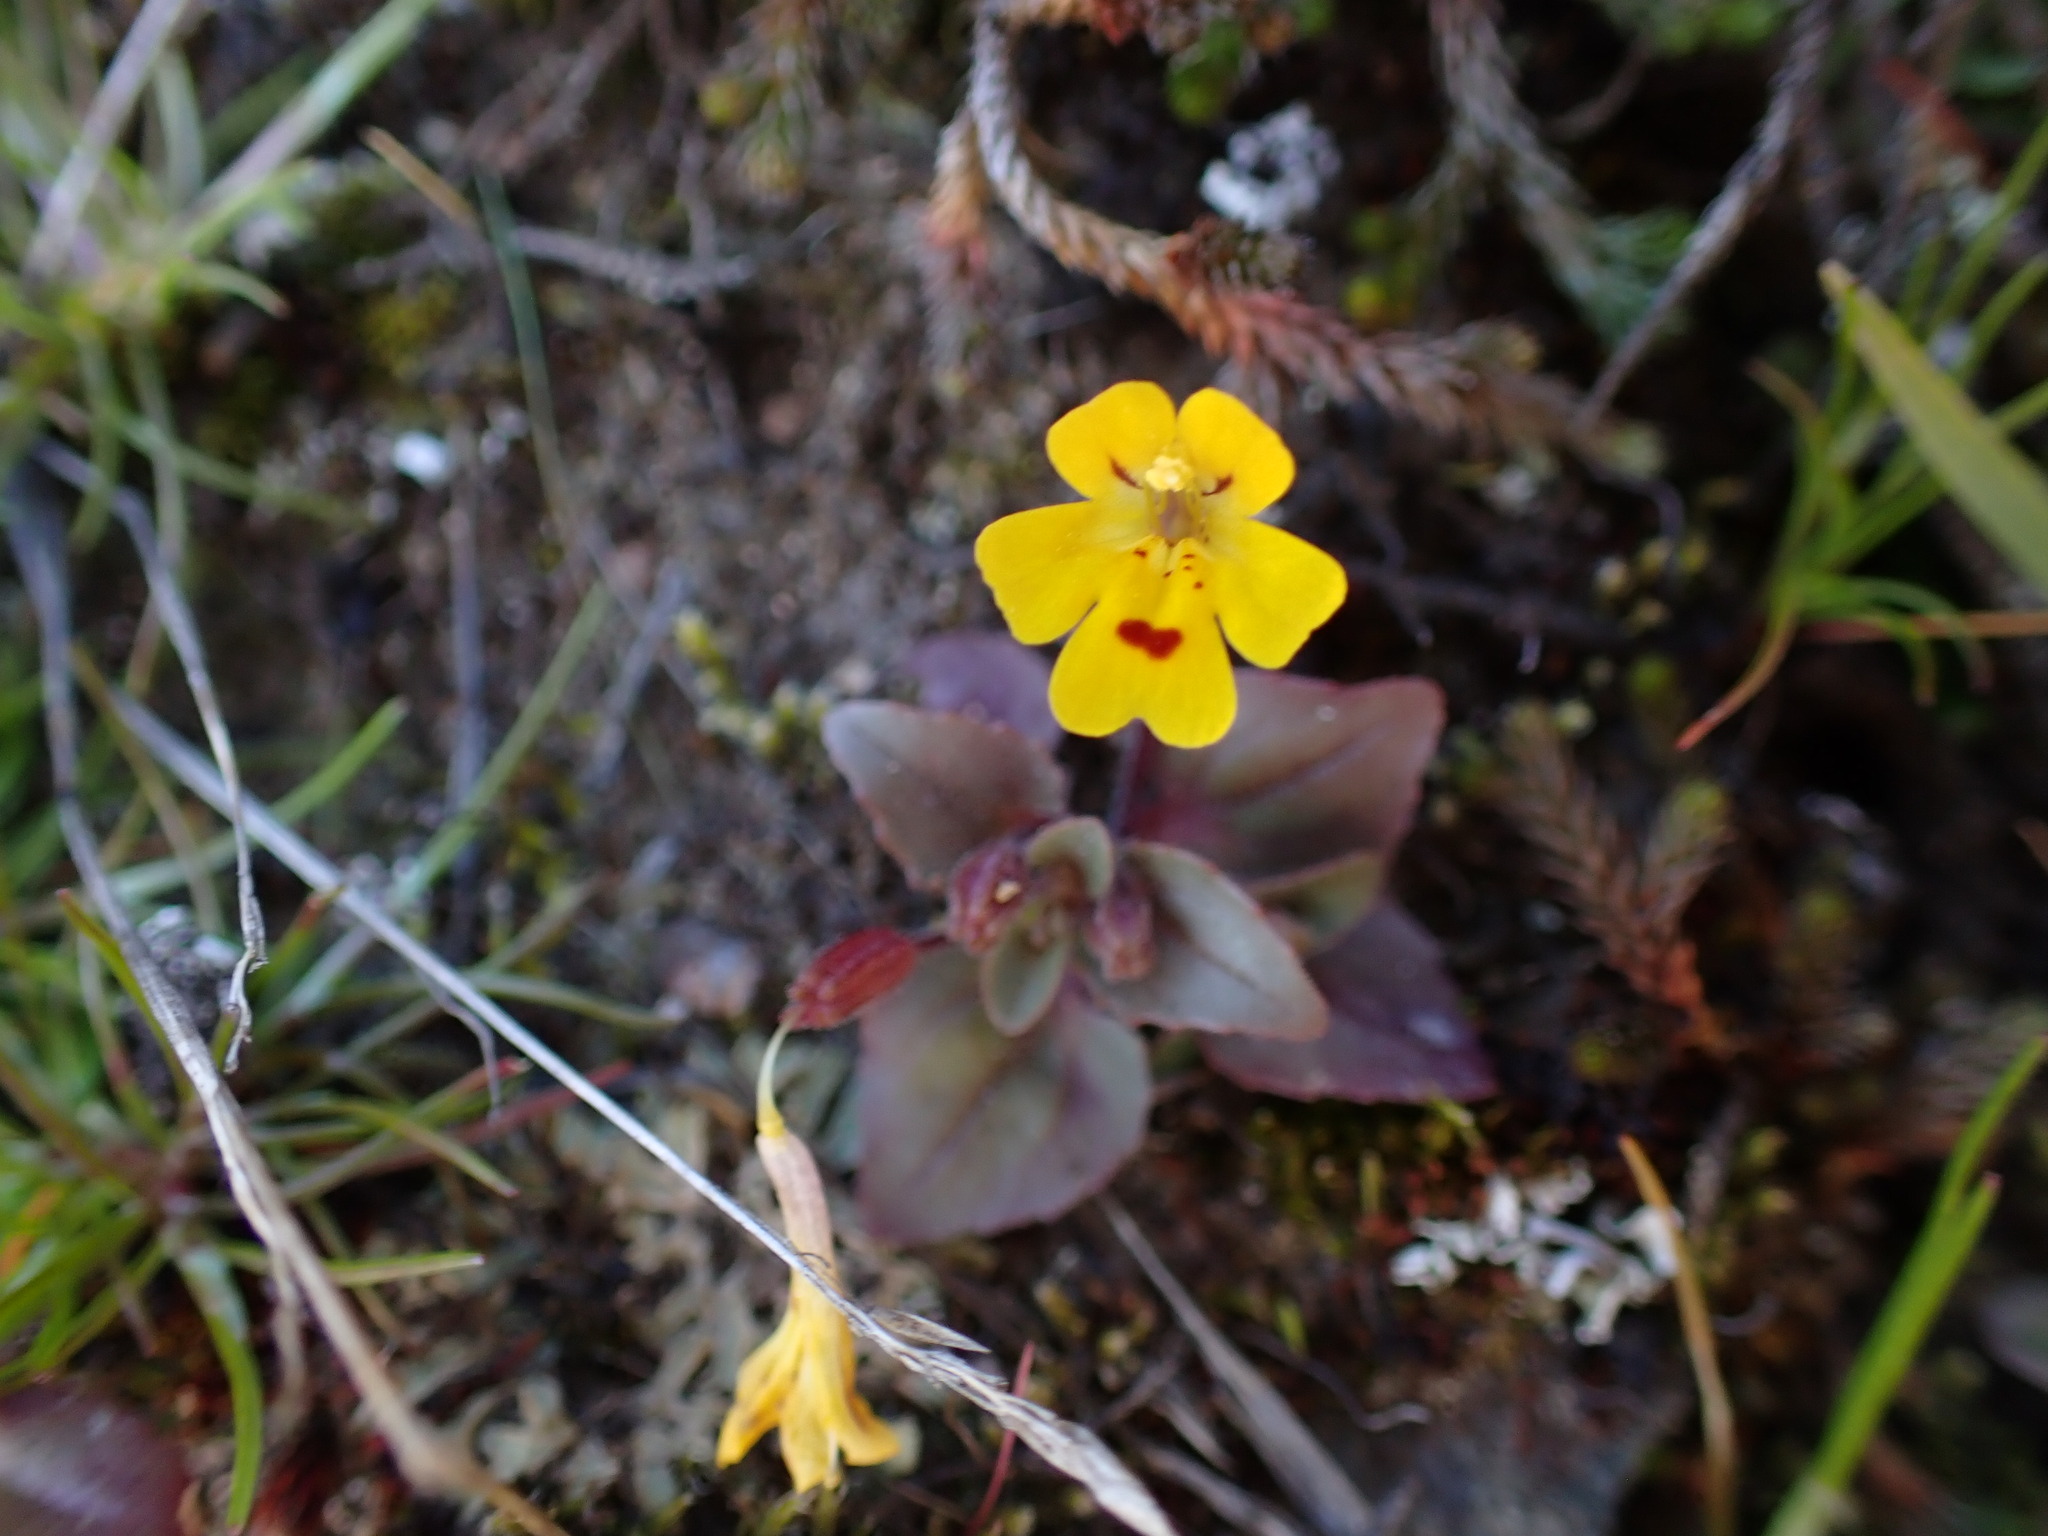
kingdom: Plantae
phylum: Tracheophyta
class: Magnoliopsida
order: Lamiales
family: Phrymaceae
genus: Erythranthe
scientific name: Erythranthe alsinoides
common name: Chickweed monkeyflower
